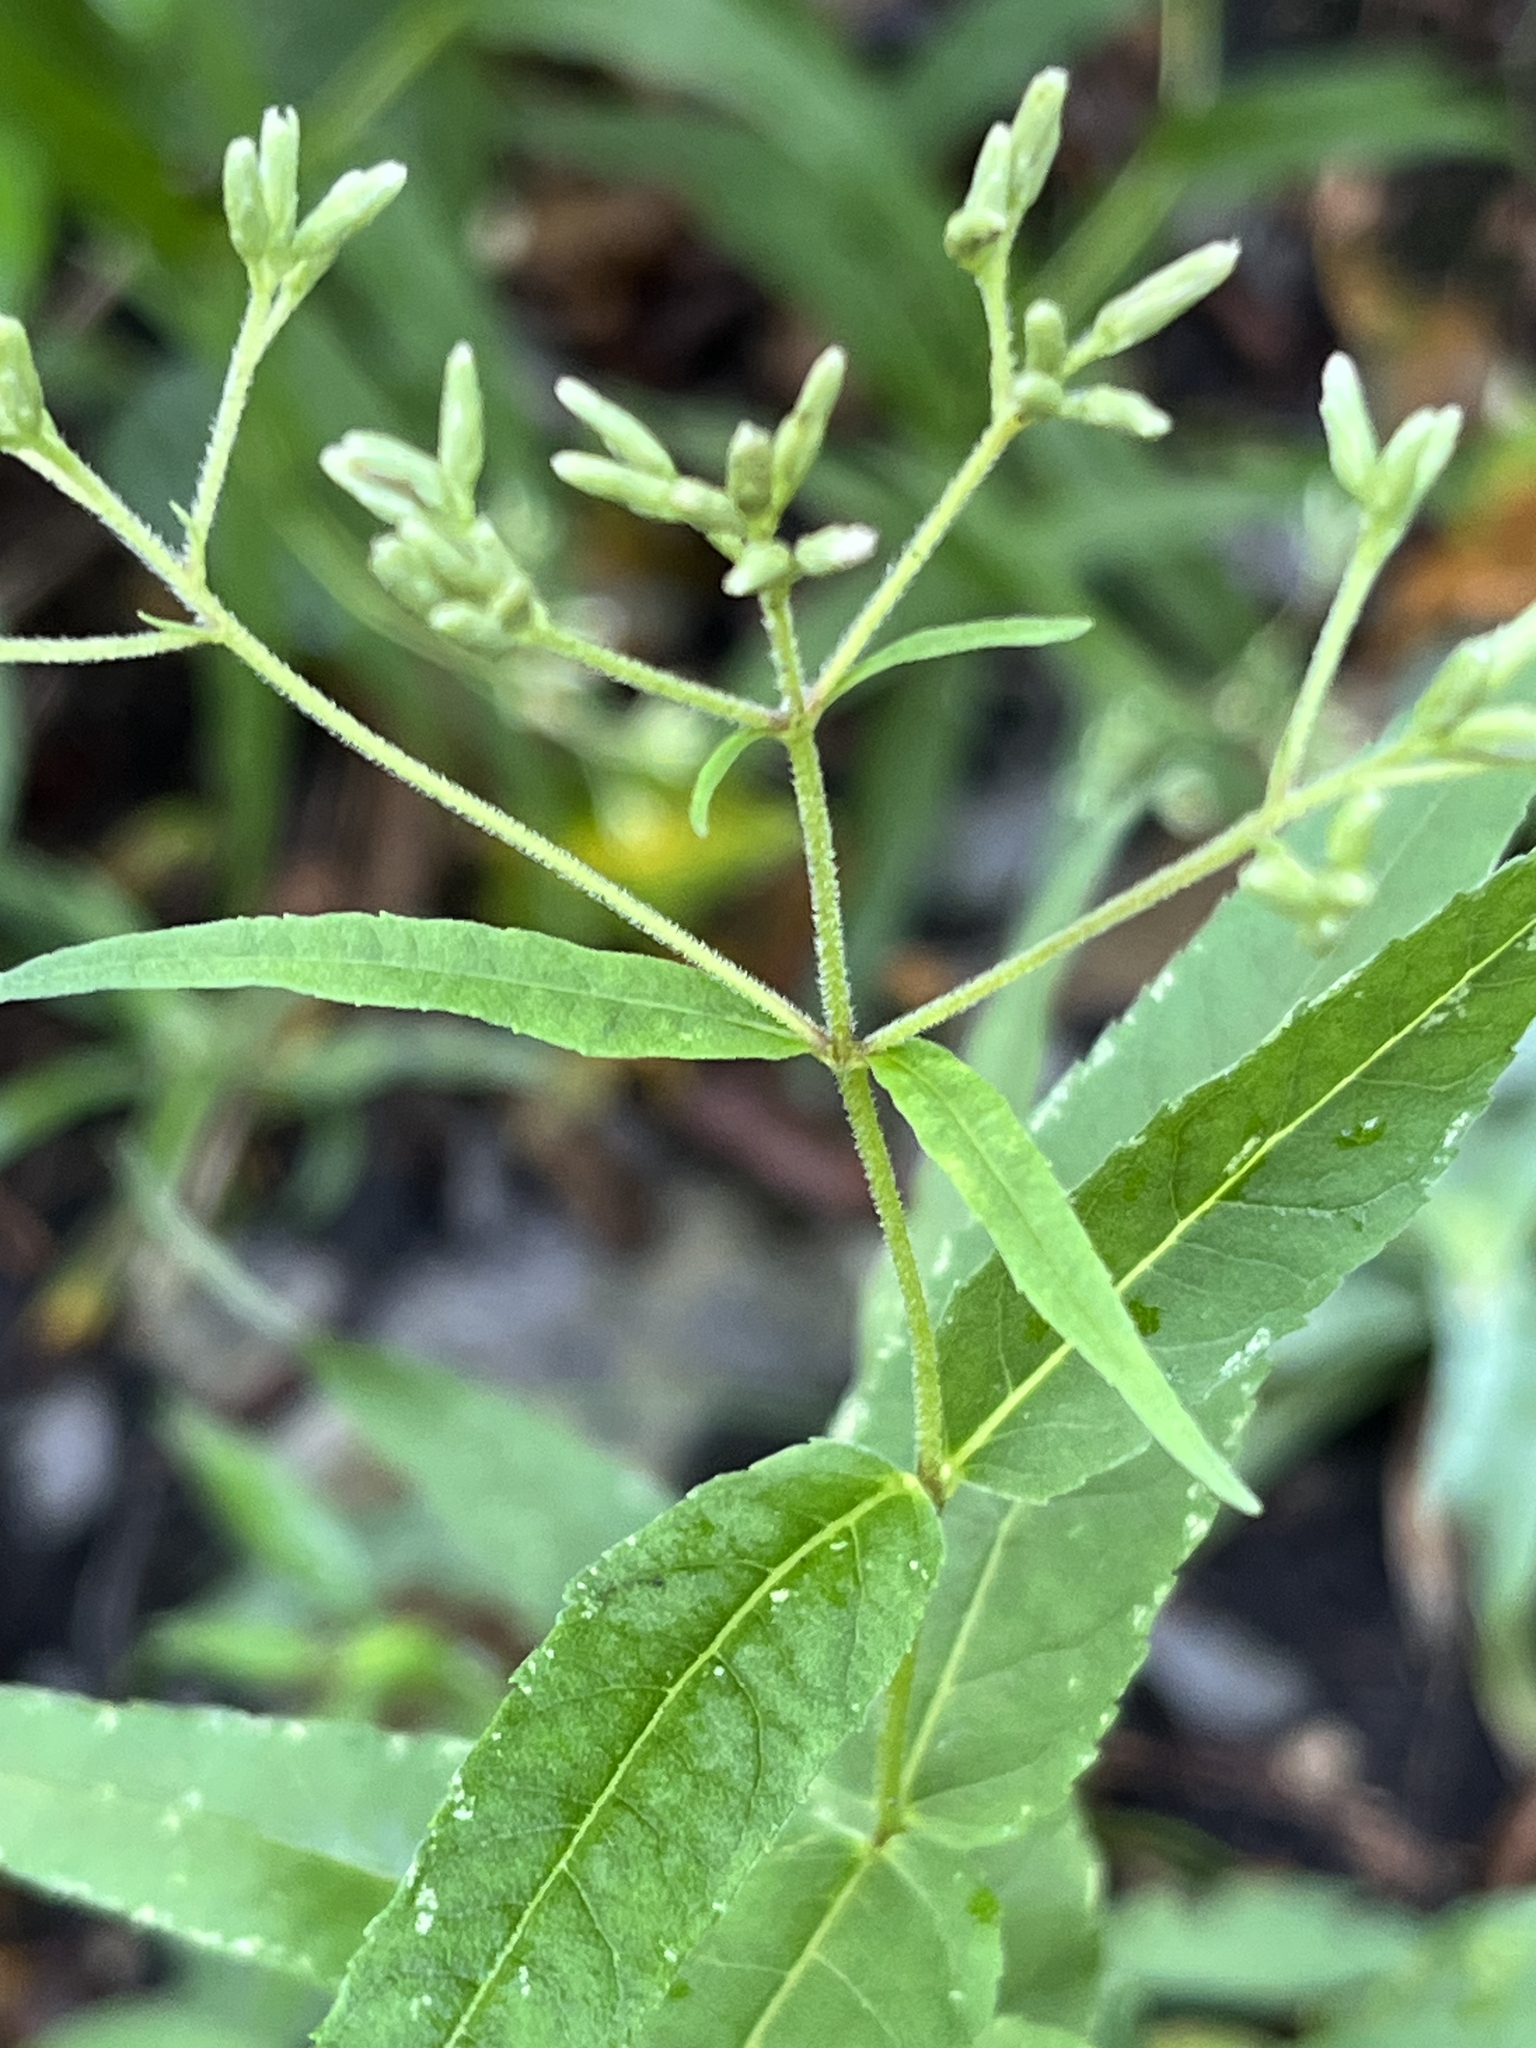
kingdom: Plantae
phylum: Tracheophyta
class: Magnoliopsida
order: Asterales
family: Asteraceae
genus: Eupatorium
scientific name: Eupatorium sessilifolium
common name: Upland boneset
